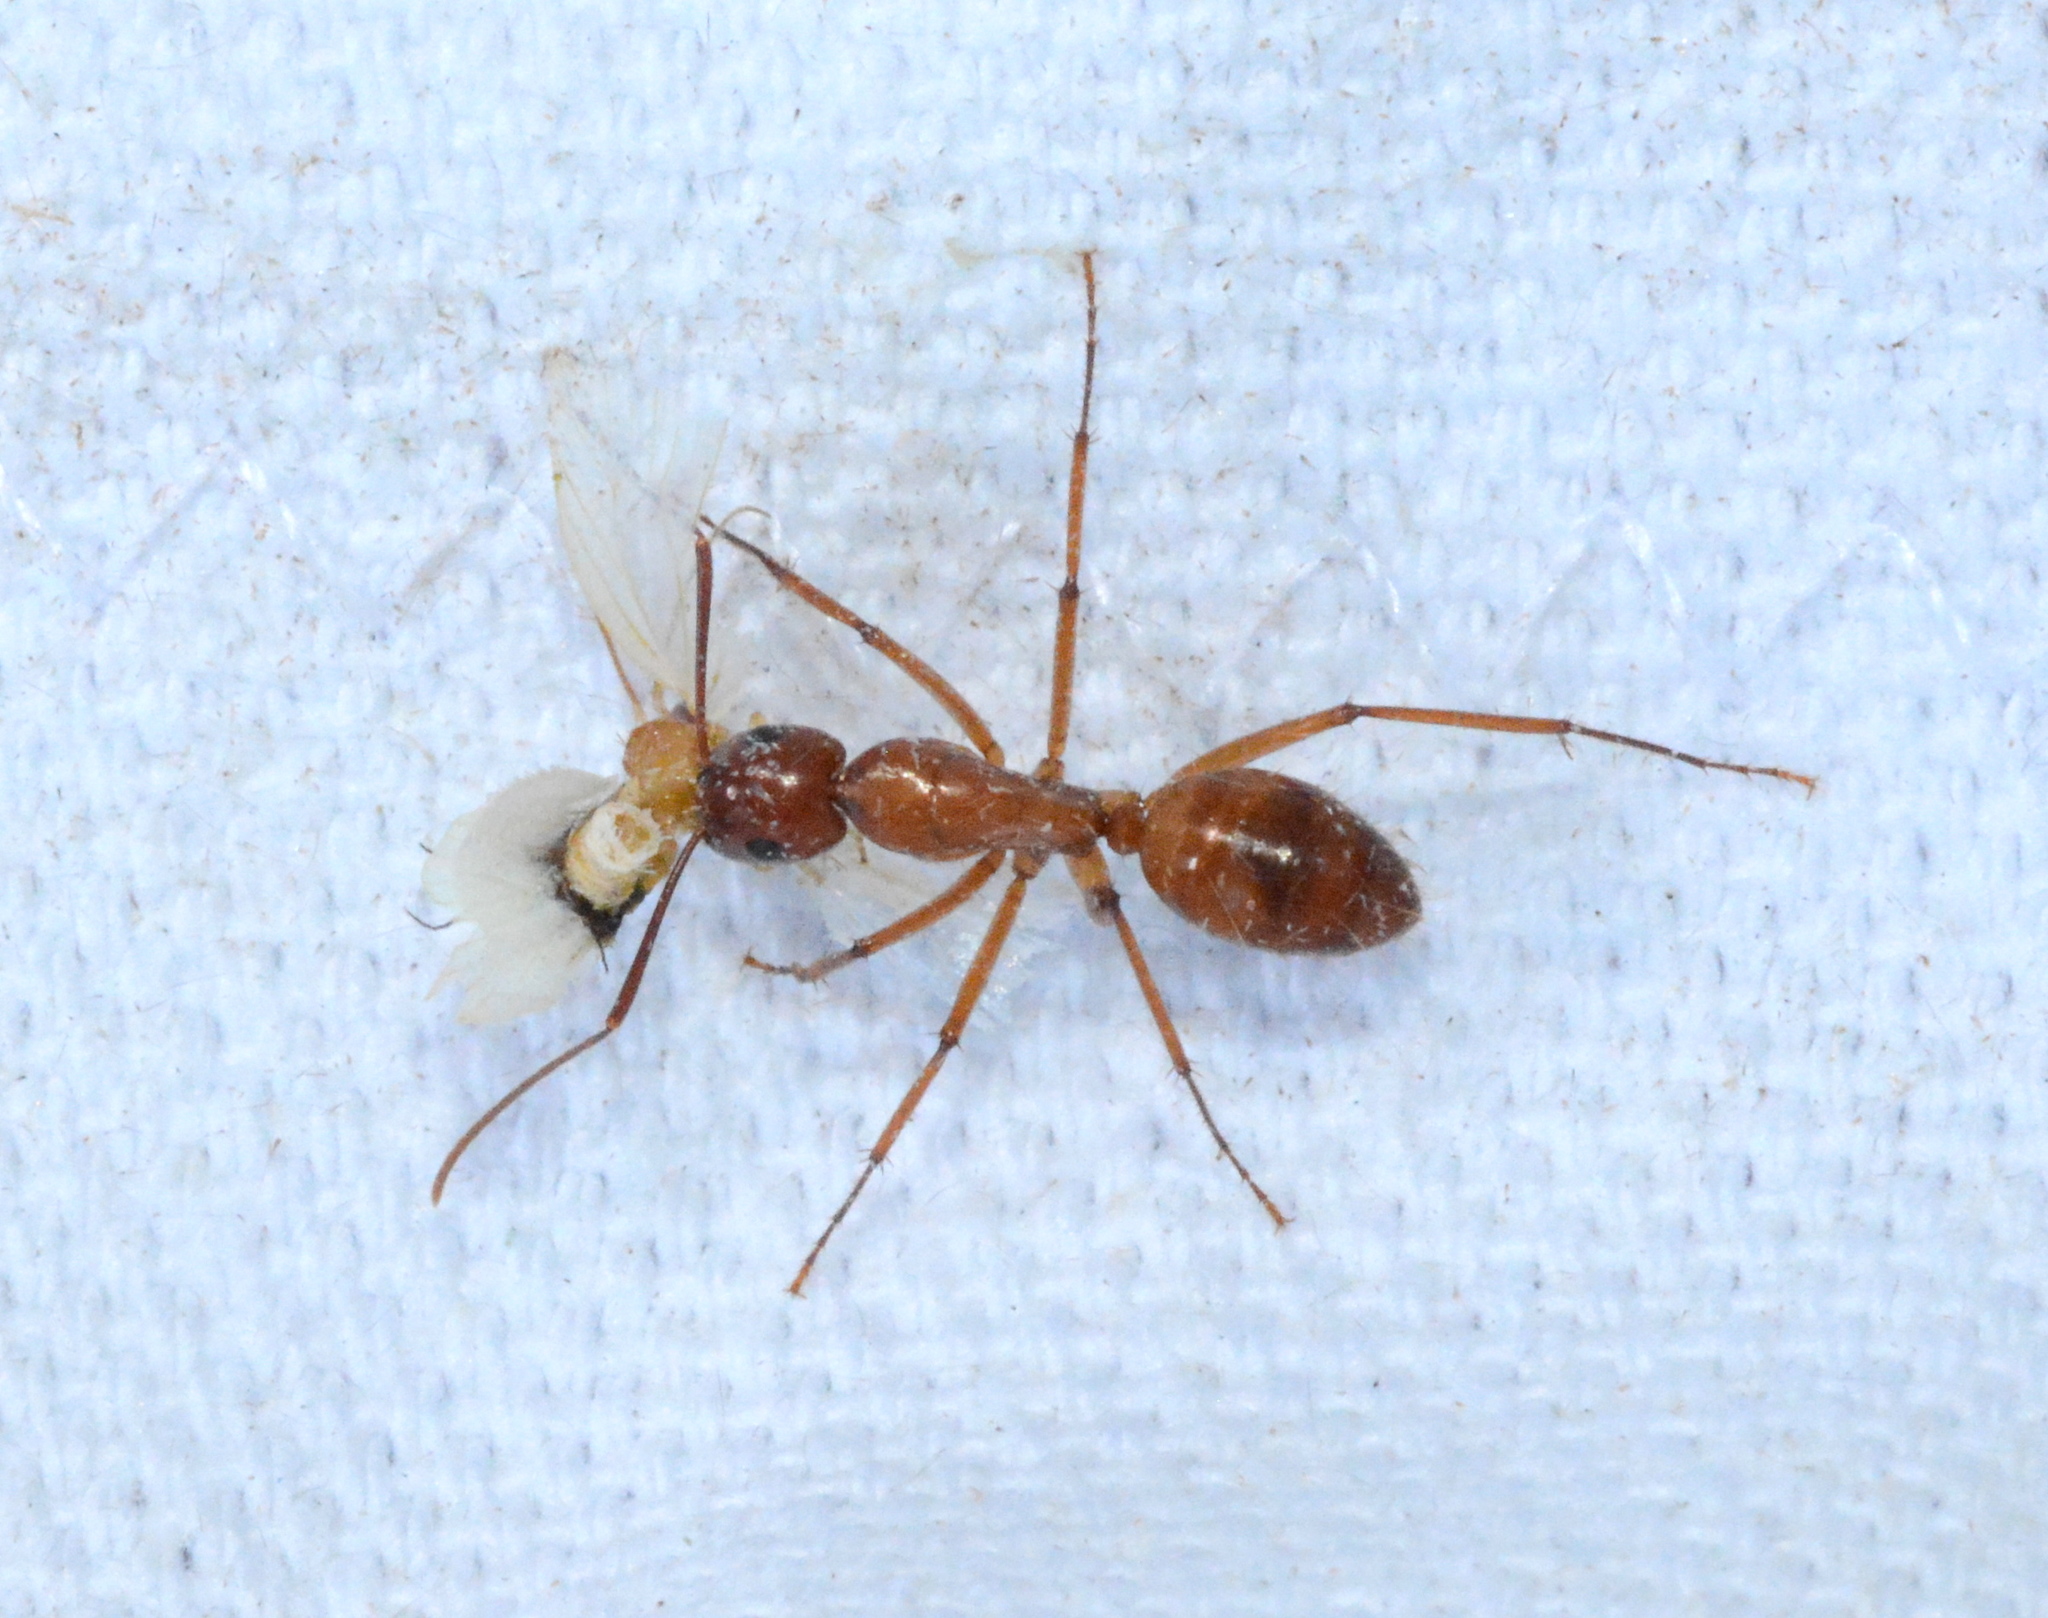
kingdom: Animalia
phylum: Arthropoda
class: Insecta
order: Hymenoptera
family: Formicidae
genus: Camponotus
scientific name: Camponotus castaneus
